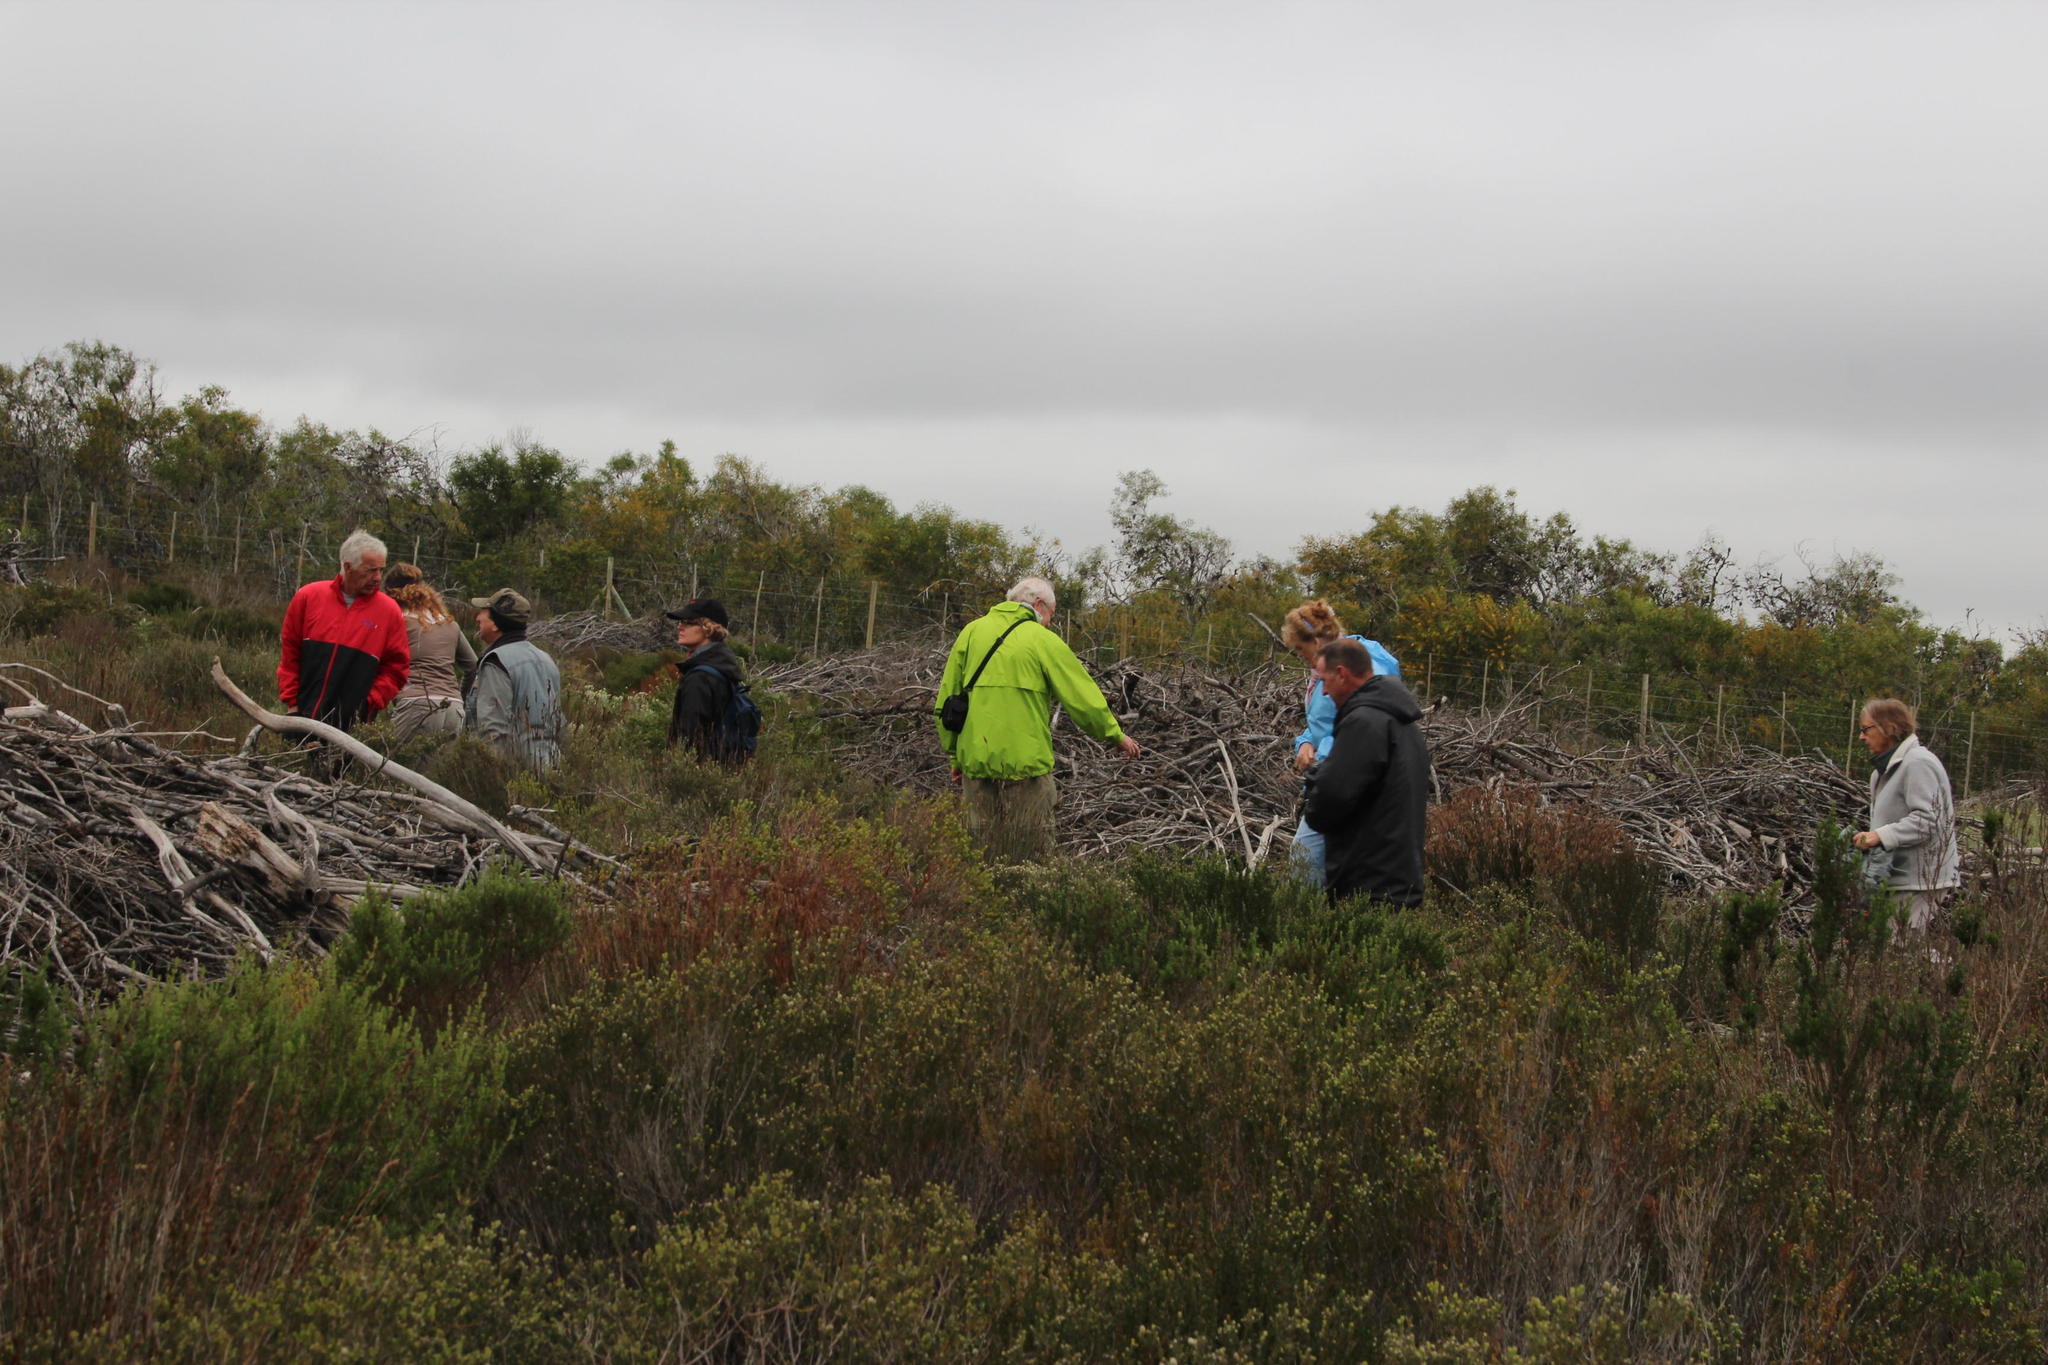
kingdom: Plantae
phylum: Tracheophyta
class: Magnoliopsida
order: Fabales
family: Fabaceae
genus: Acacia
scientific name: Acacia saligna
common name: Orange wattle
